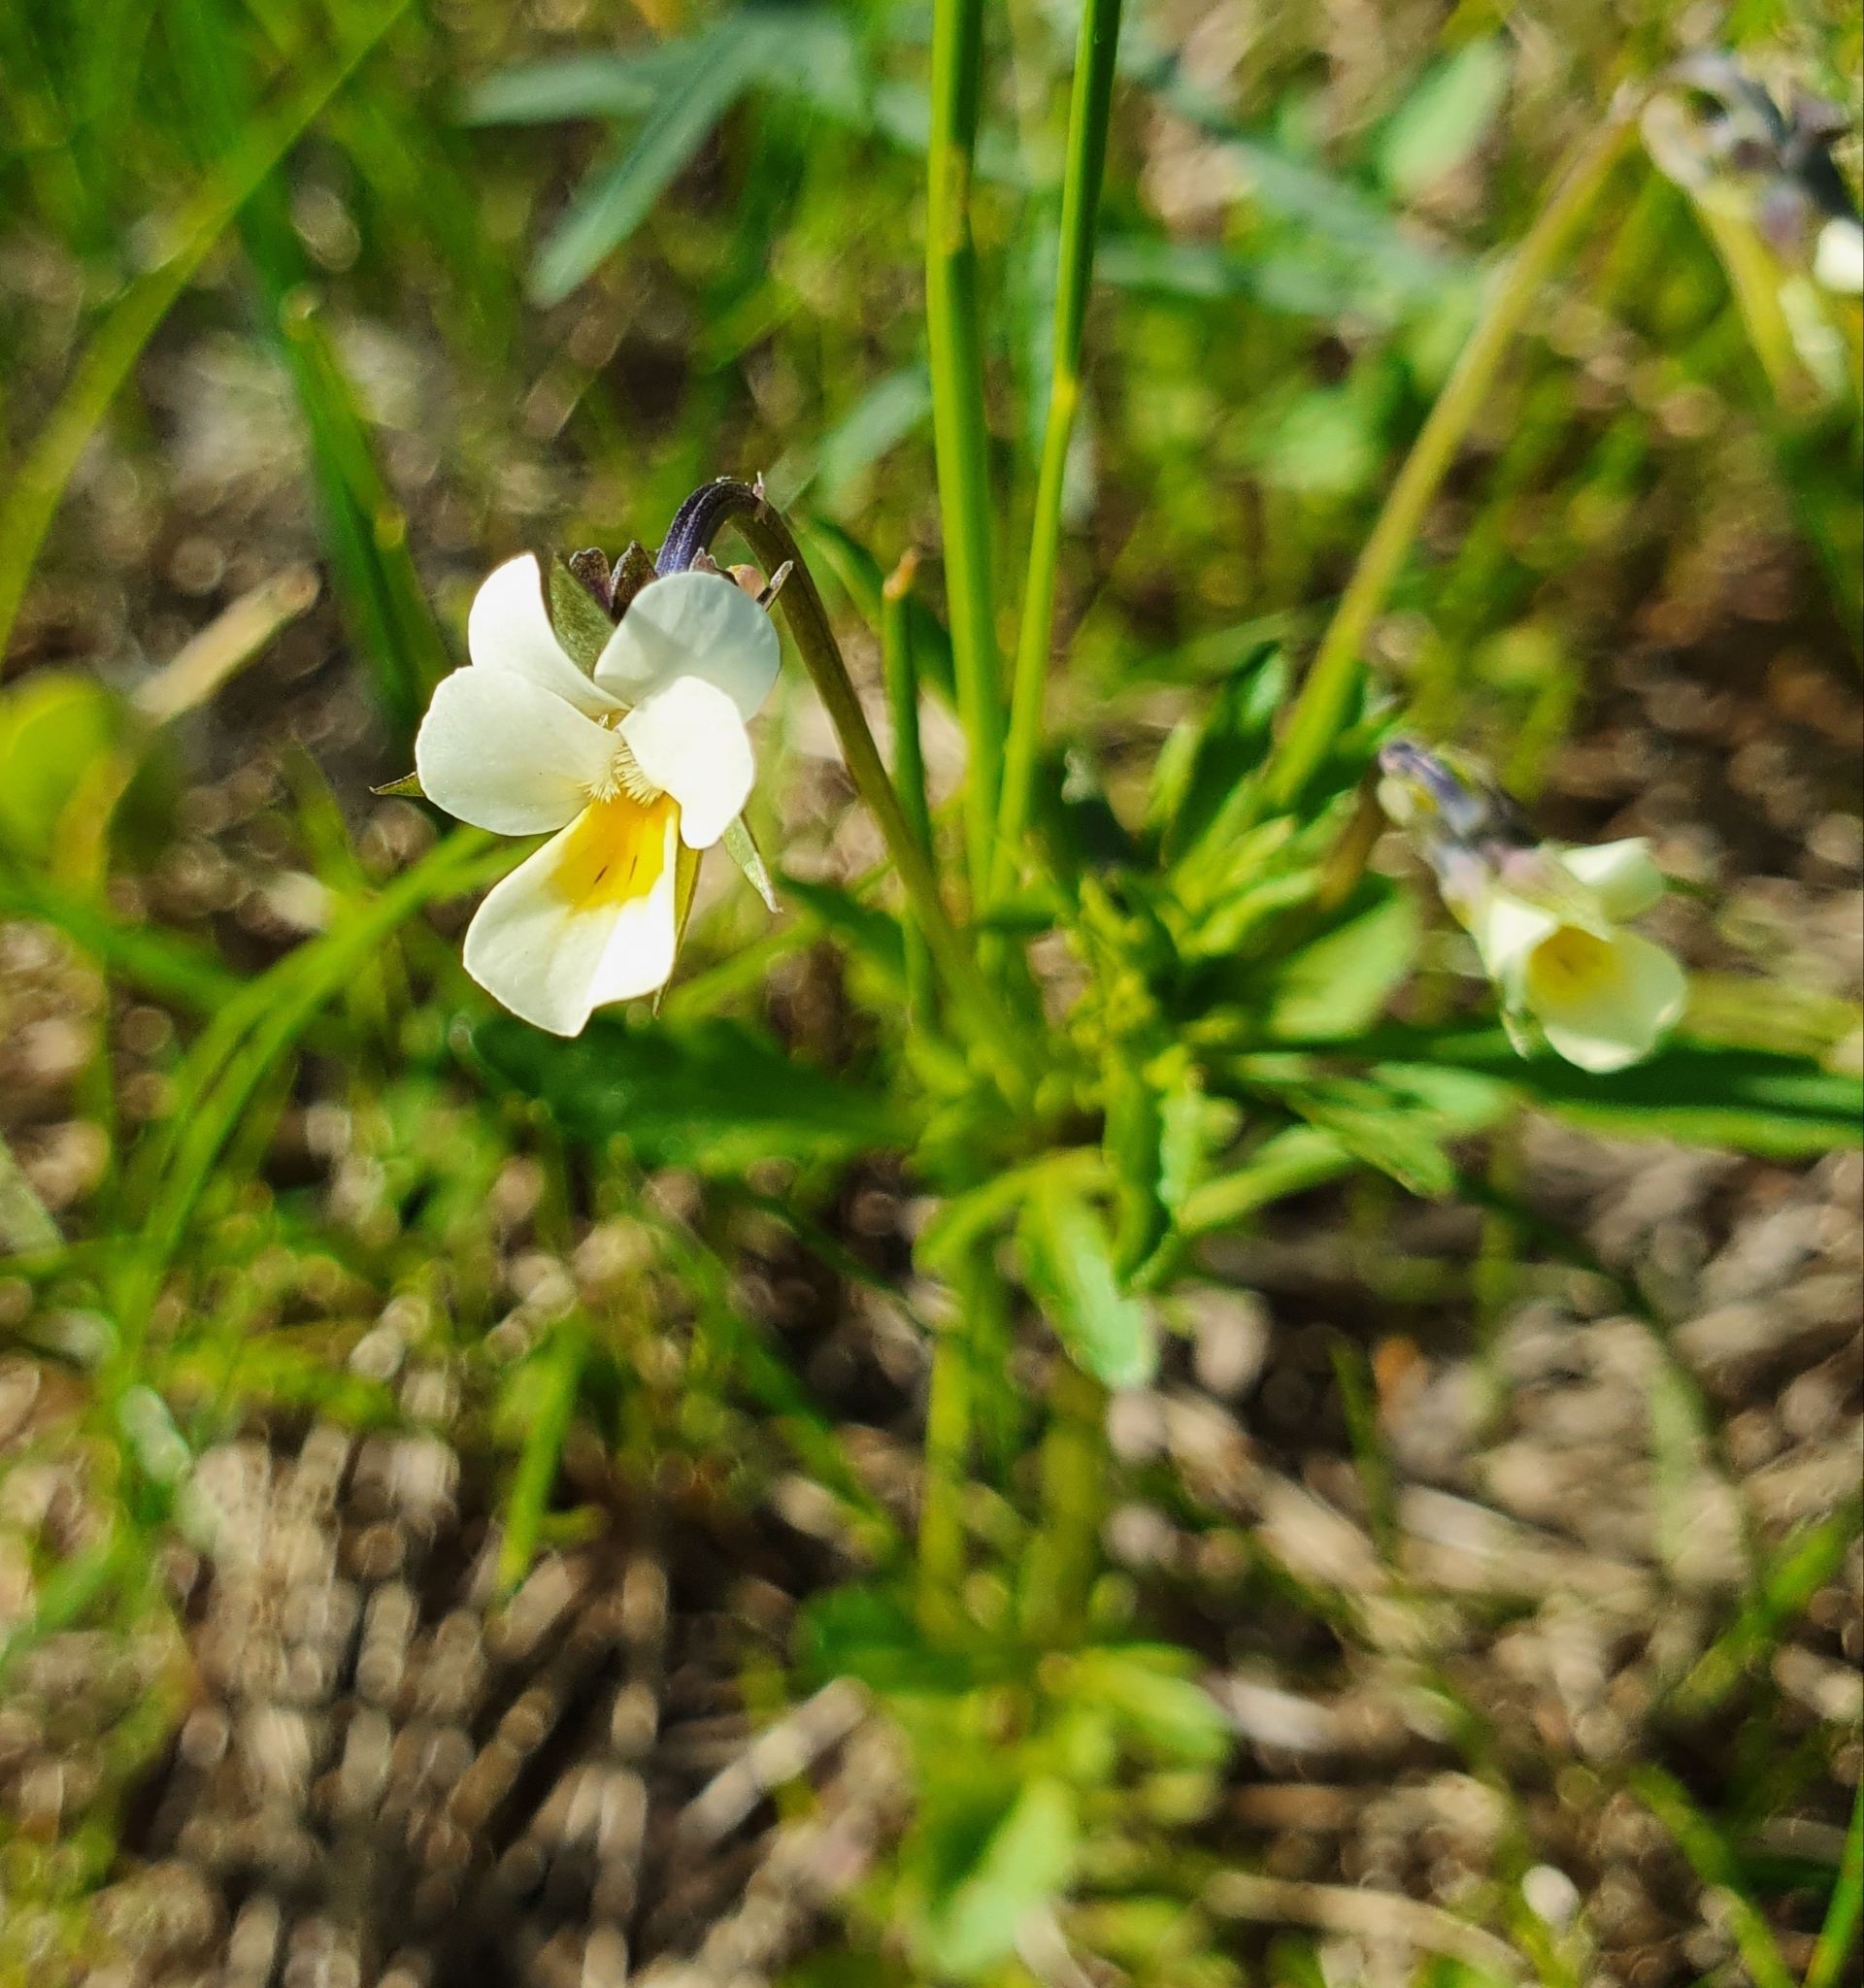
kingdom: Plantae
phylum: Tracheophyta
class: Magnoliopsida
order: Malpighiales
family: Violaceae
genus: Viola
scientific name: Viola arvensis
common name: Field pansy
